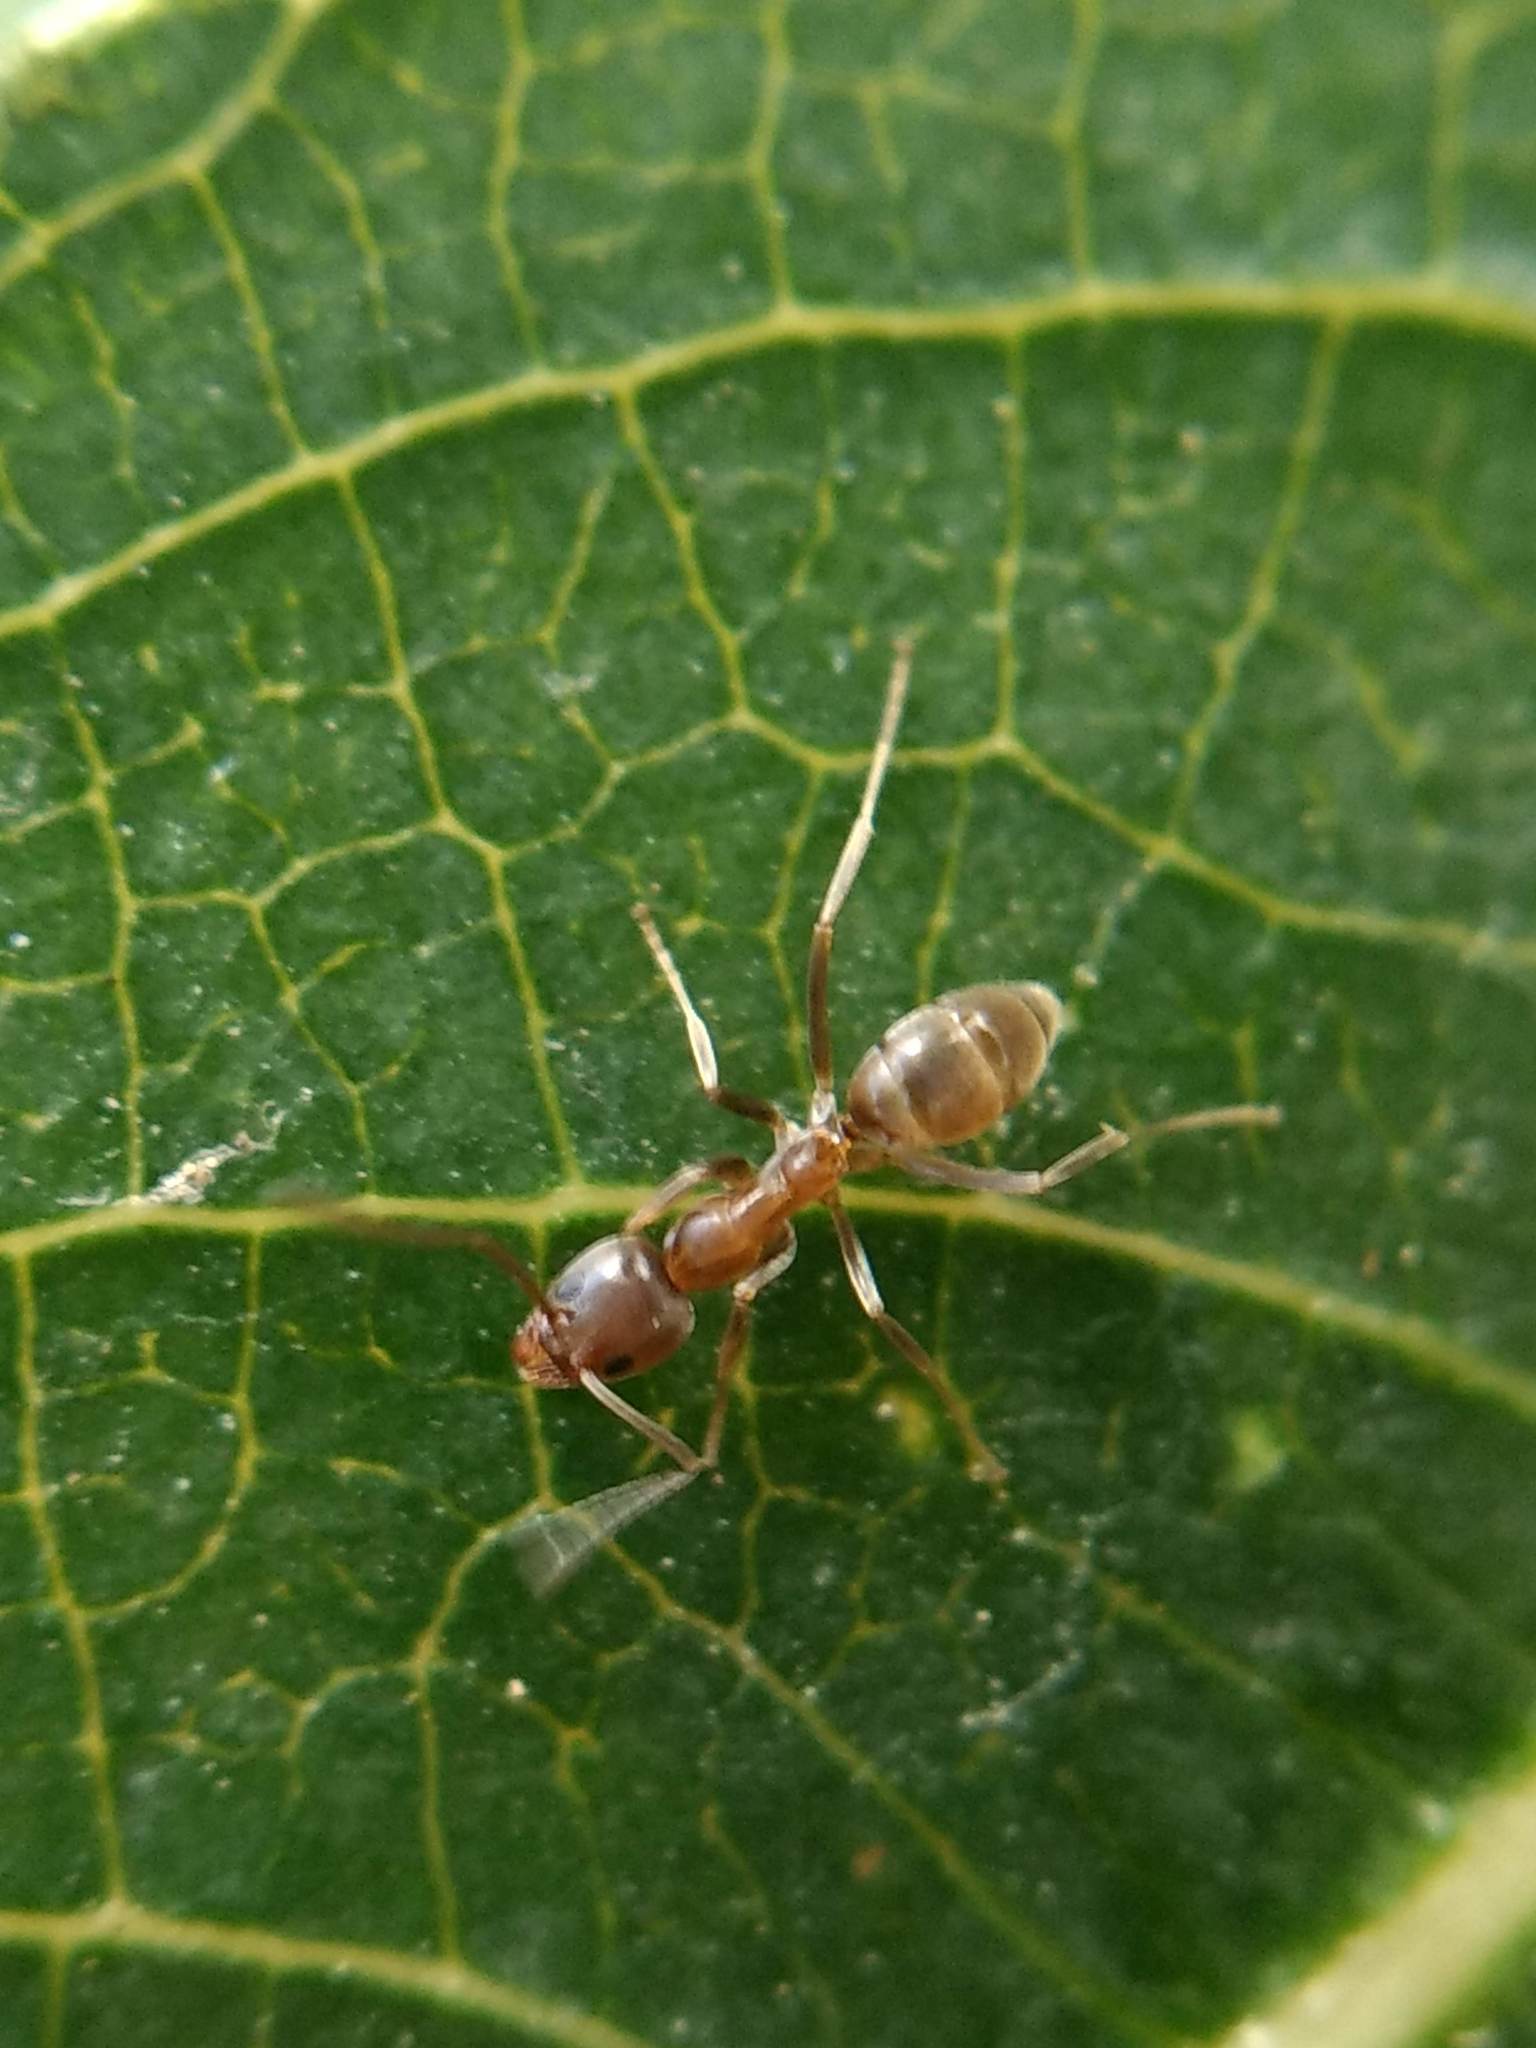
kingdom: Animalia
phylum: Arthropoda
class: Insecta
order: Hymenoptera
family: Formicidae
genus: Linepithema
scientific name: Linepithema humile
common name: Argentine ant
